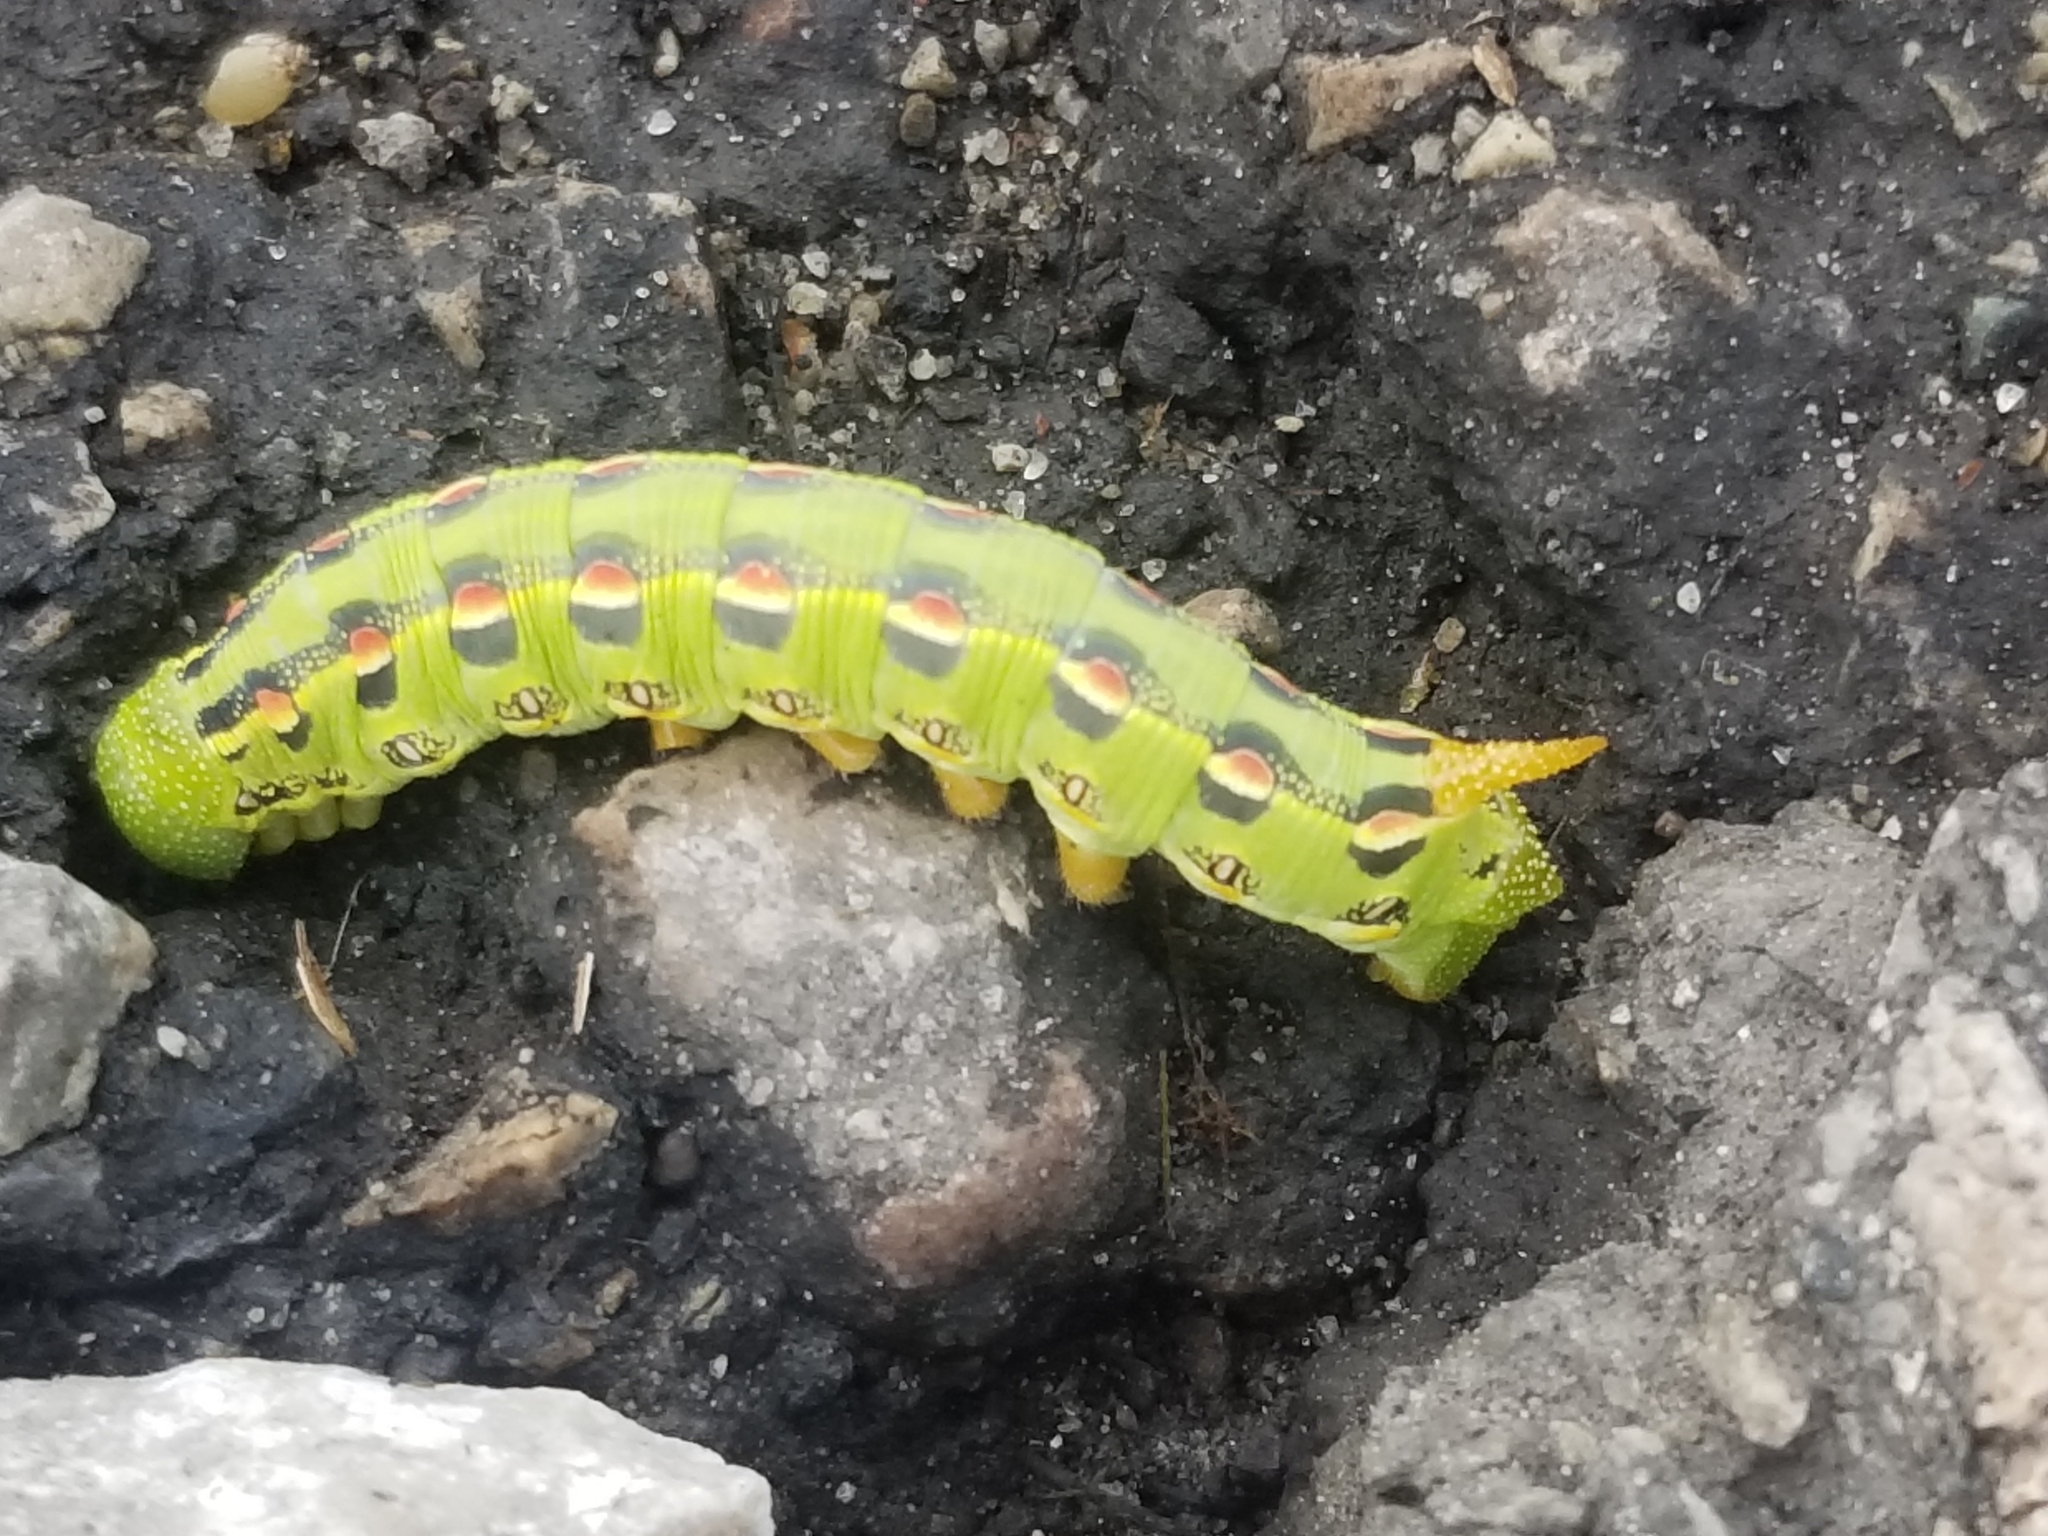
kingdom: Animalia
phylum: Arthropoda
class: Insecta
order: Lepidoptera
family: Sphingidae
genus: Hyles
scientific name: Hyles lineata
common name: White-lined sphinx
